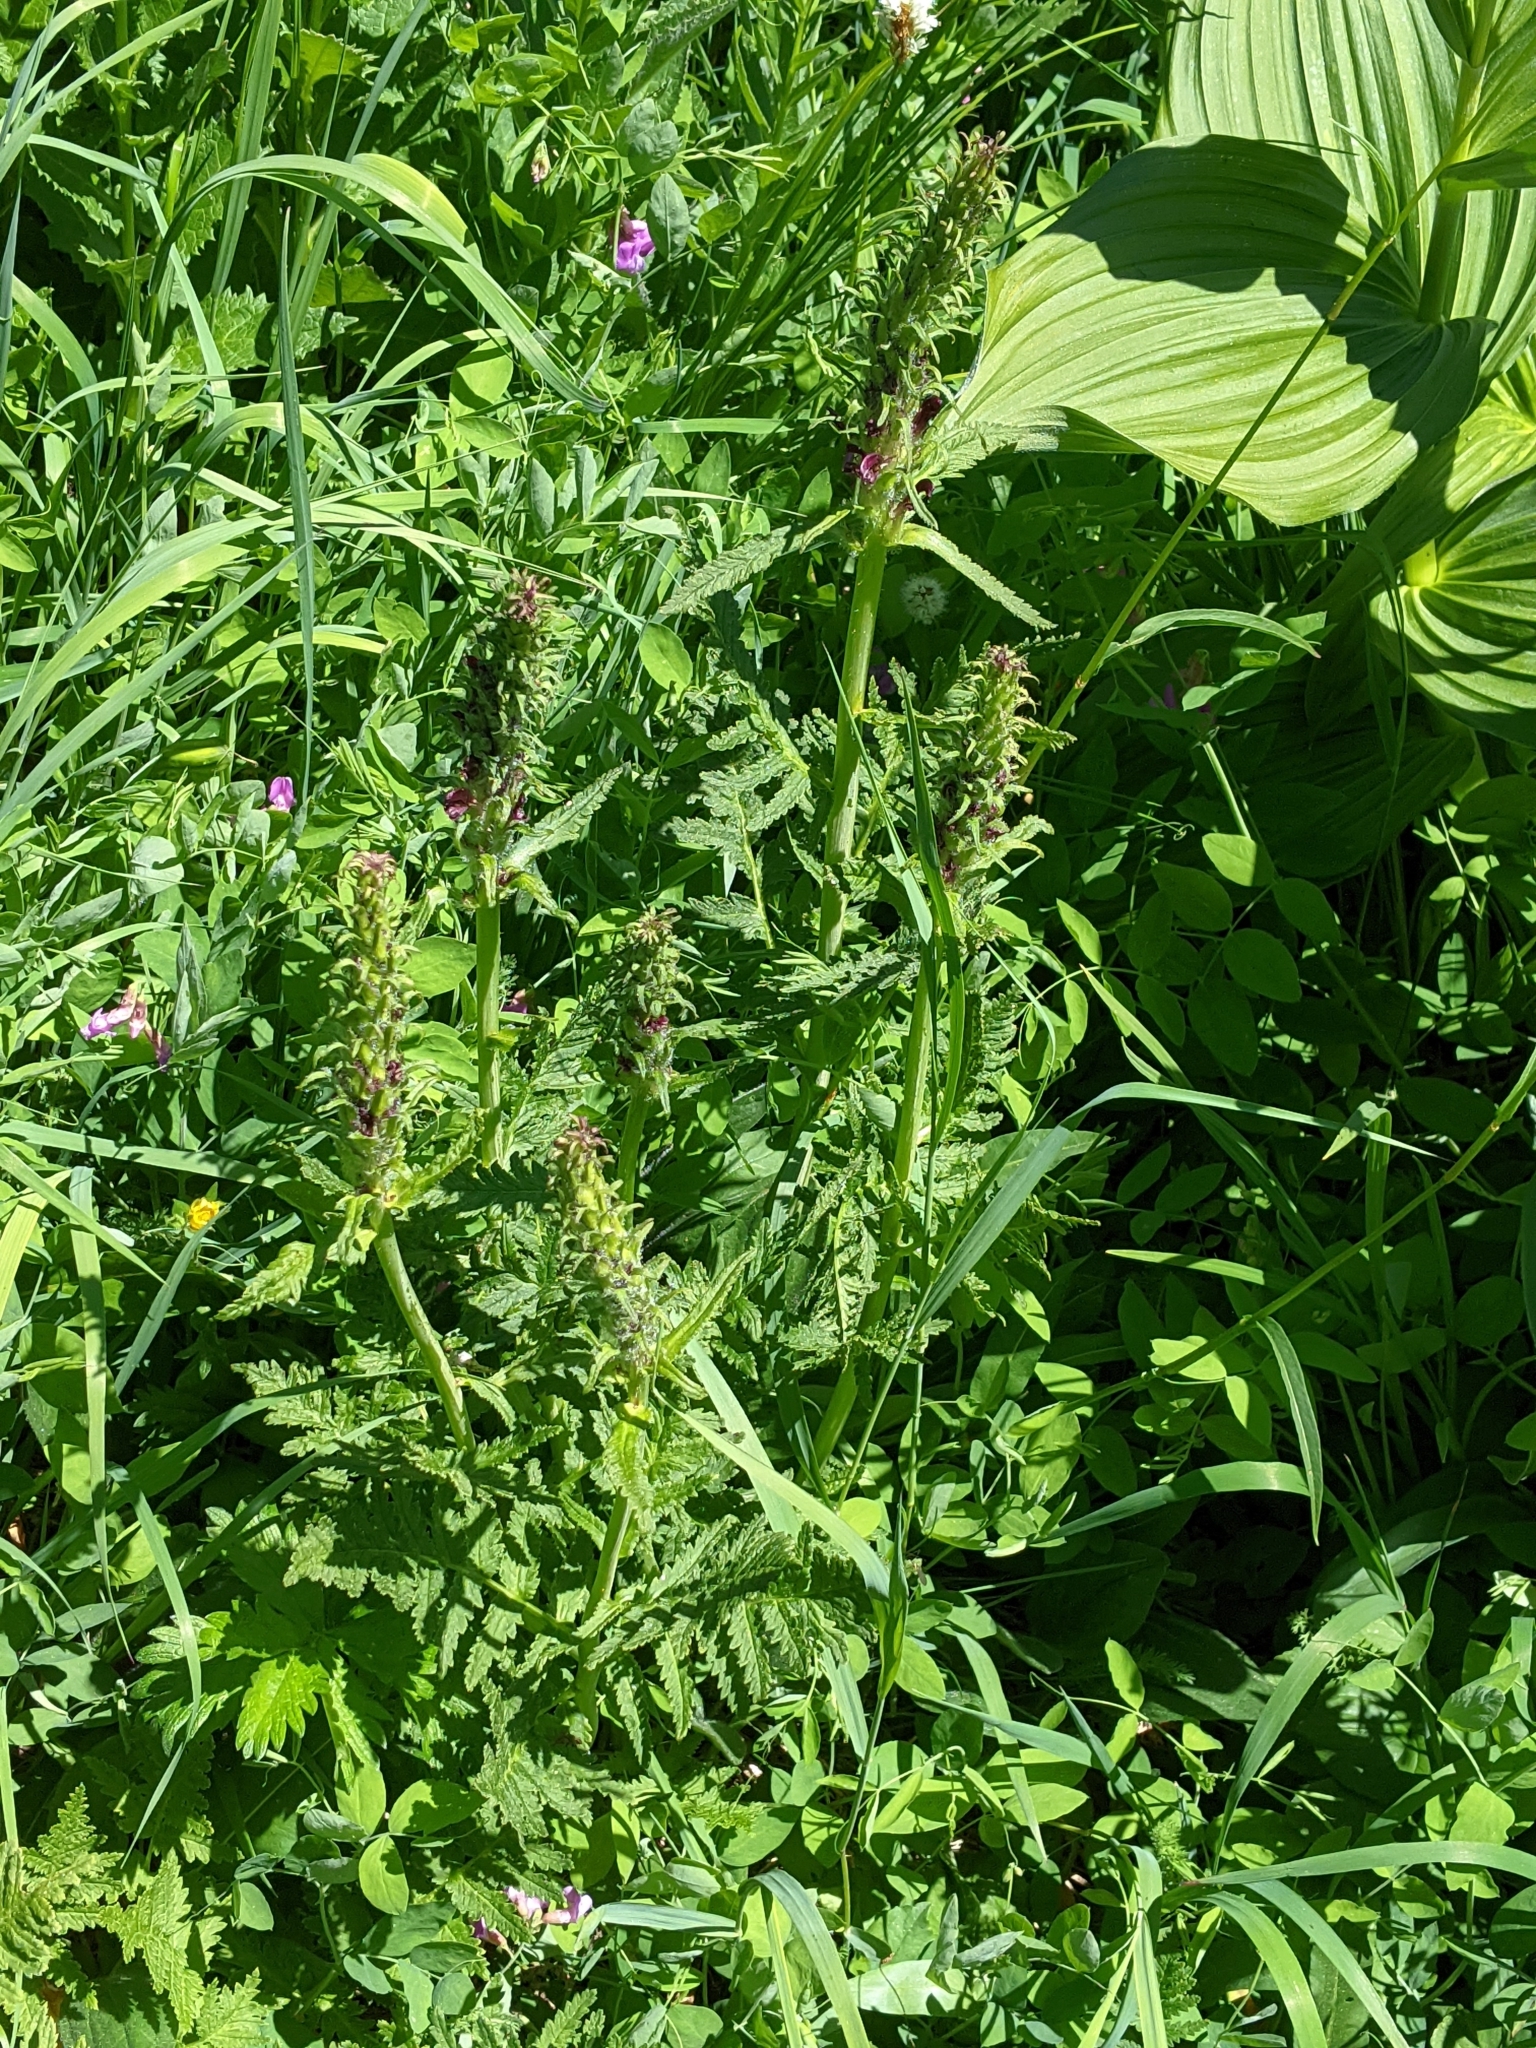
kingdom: Plantae
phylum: Tracheophyta
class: Magnoliopsida
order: Lamiales
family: Orobanchaceae
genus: Pedicularis
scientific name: Pedicularis bracteosa
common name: Bracted lousewort
